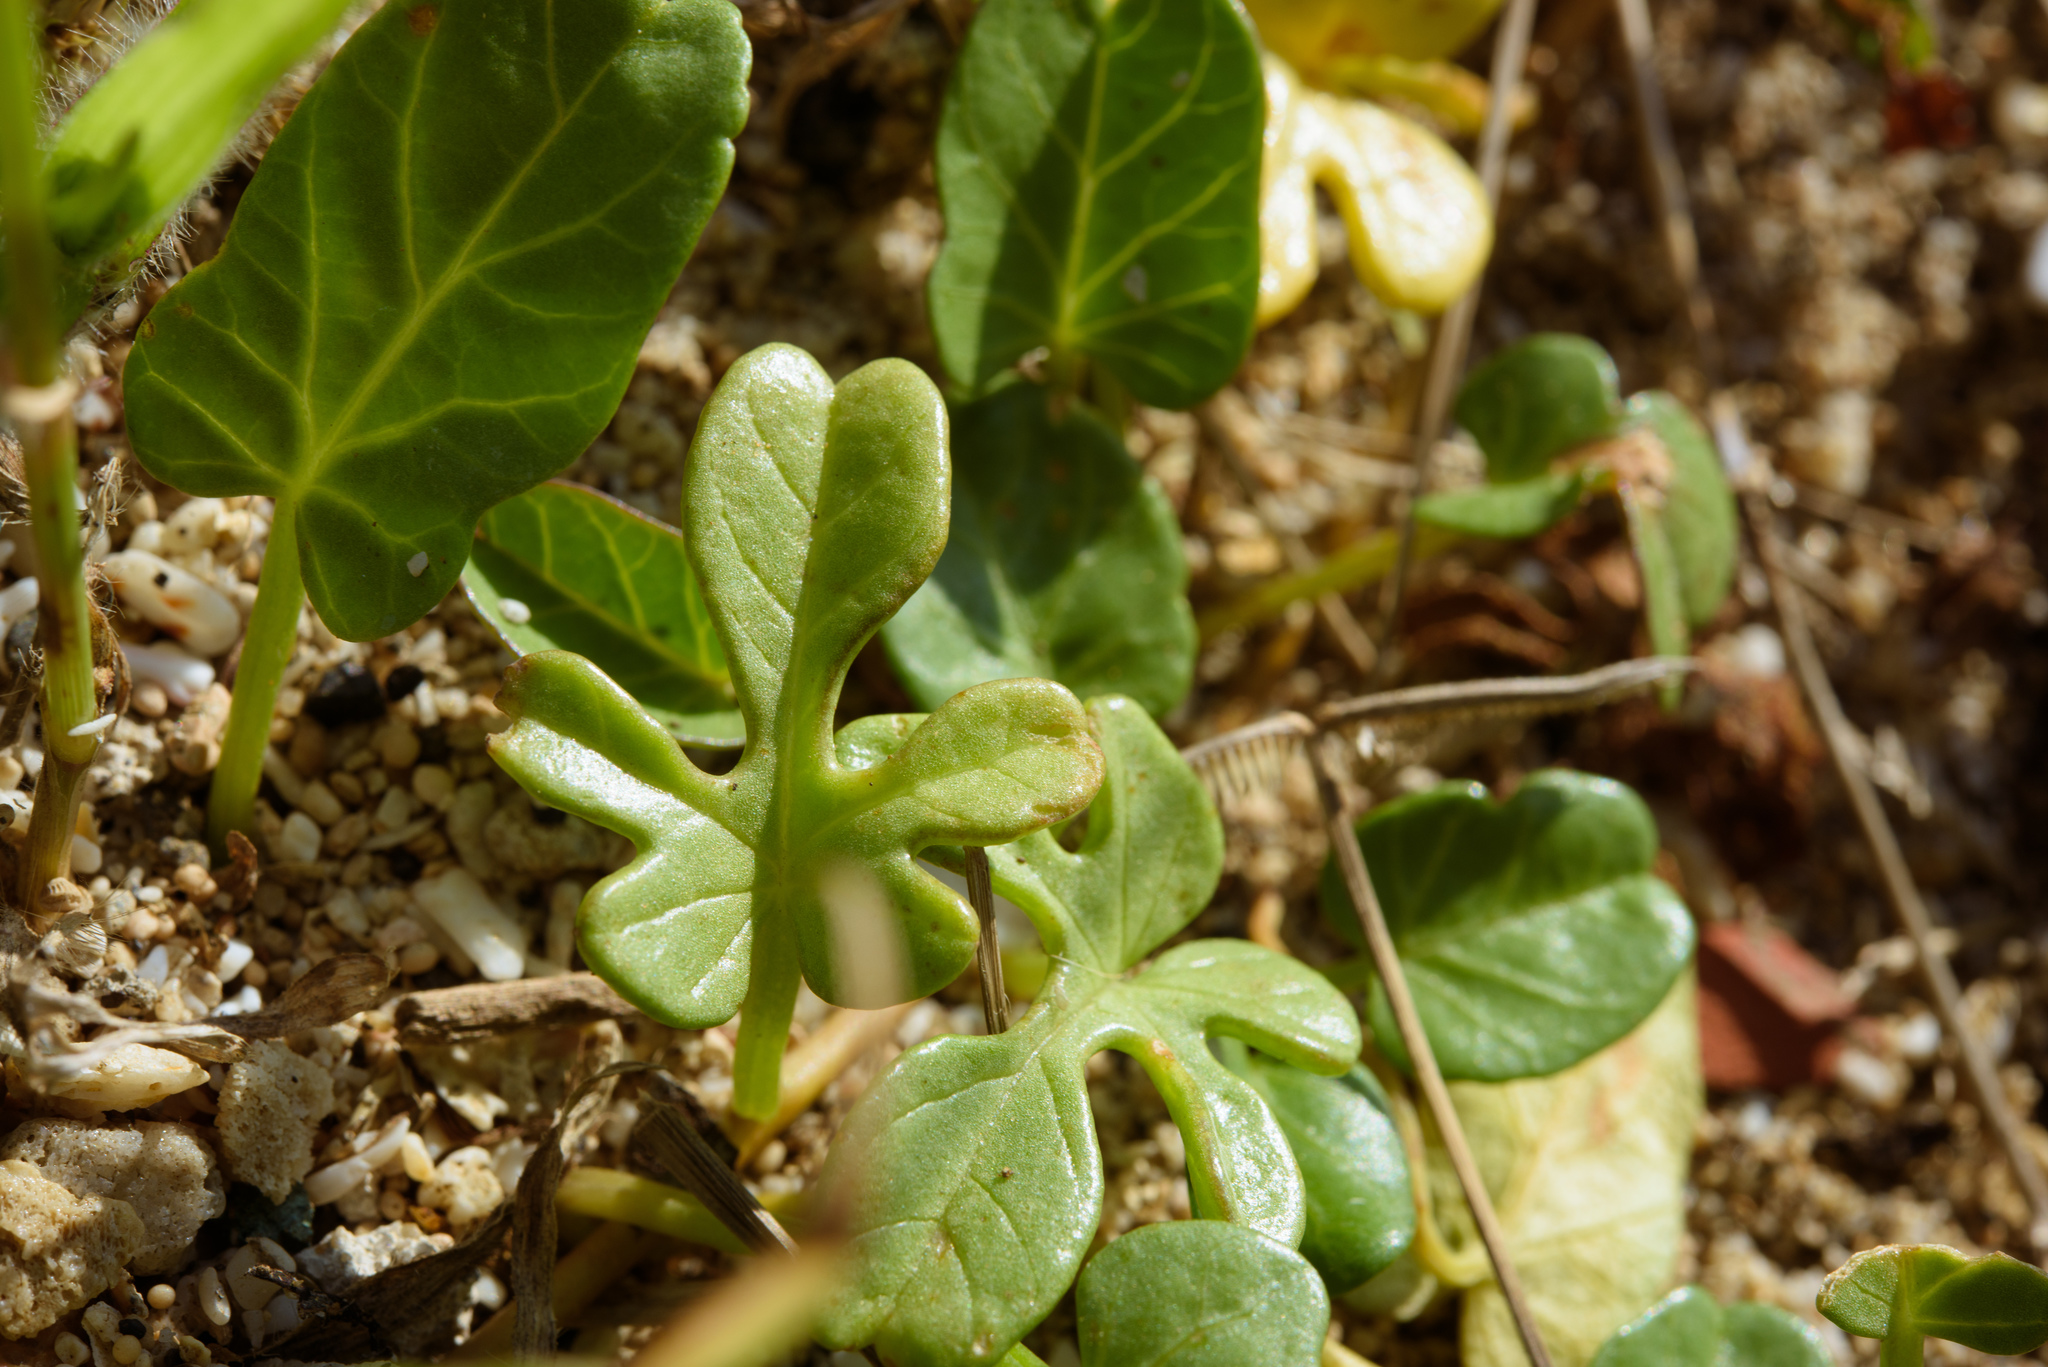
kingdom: Plantae
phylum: Tracheophyta
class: Magnoliopsida
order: Solanales
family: Convolvulaceae
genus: Ipomoea
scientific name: Ipomoea imperati
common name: Fiddle-leaf morning-glory
